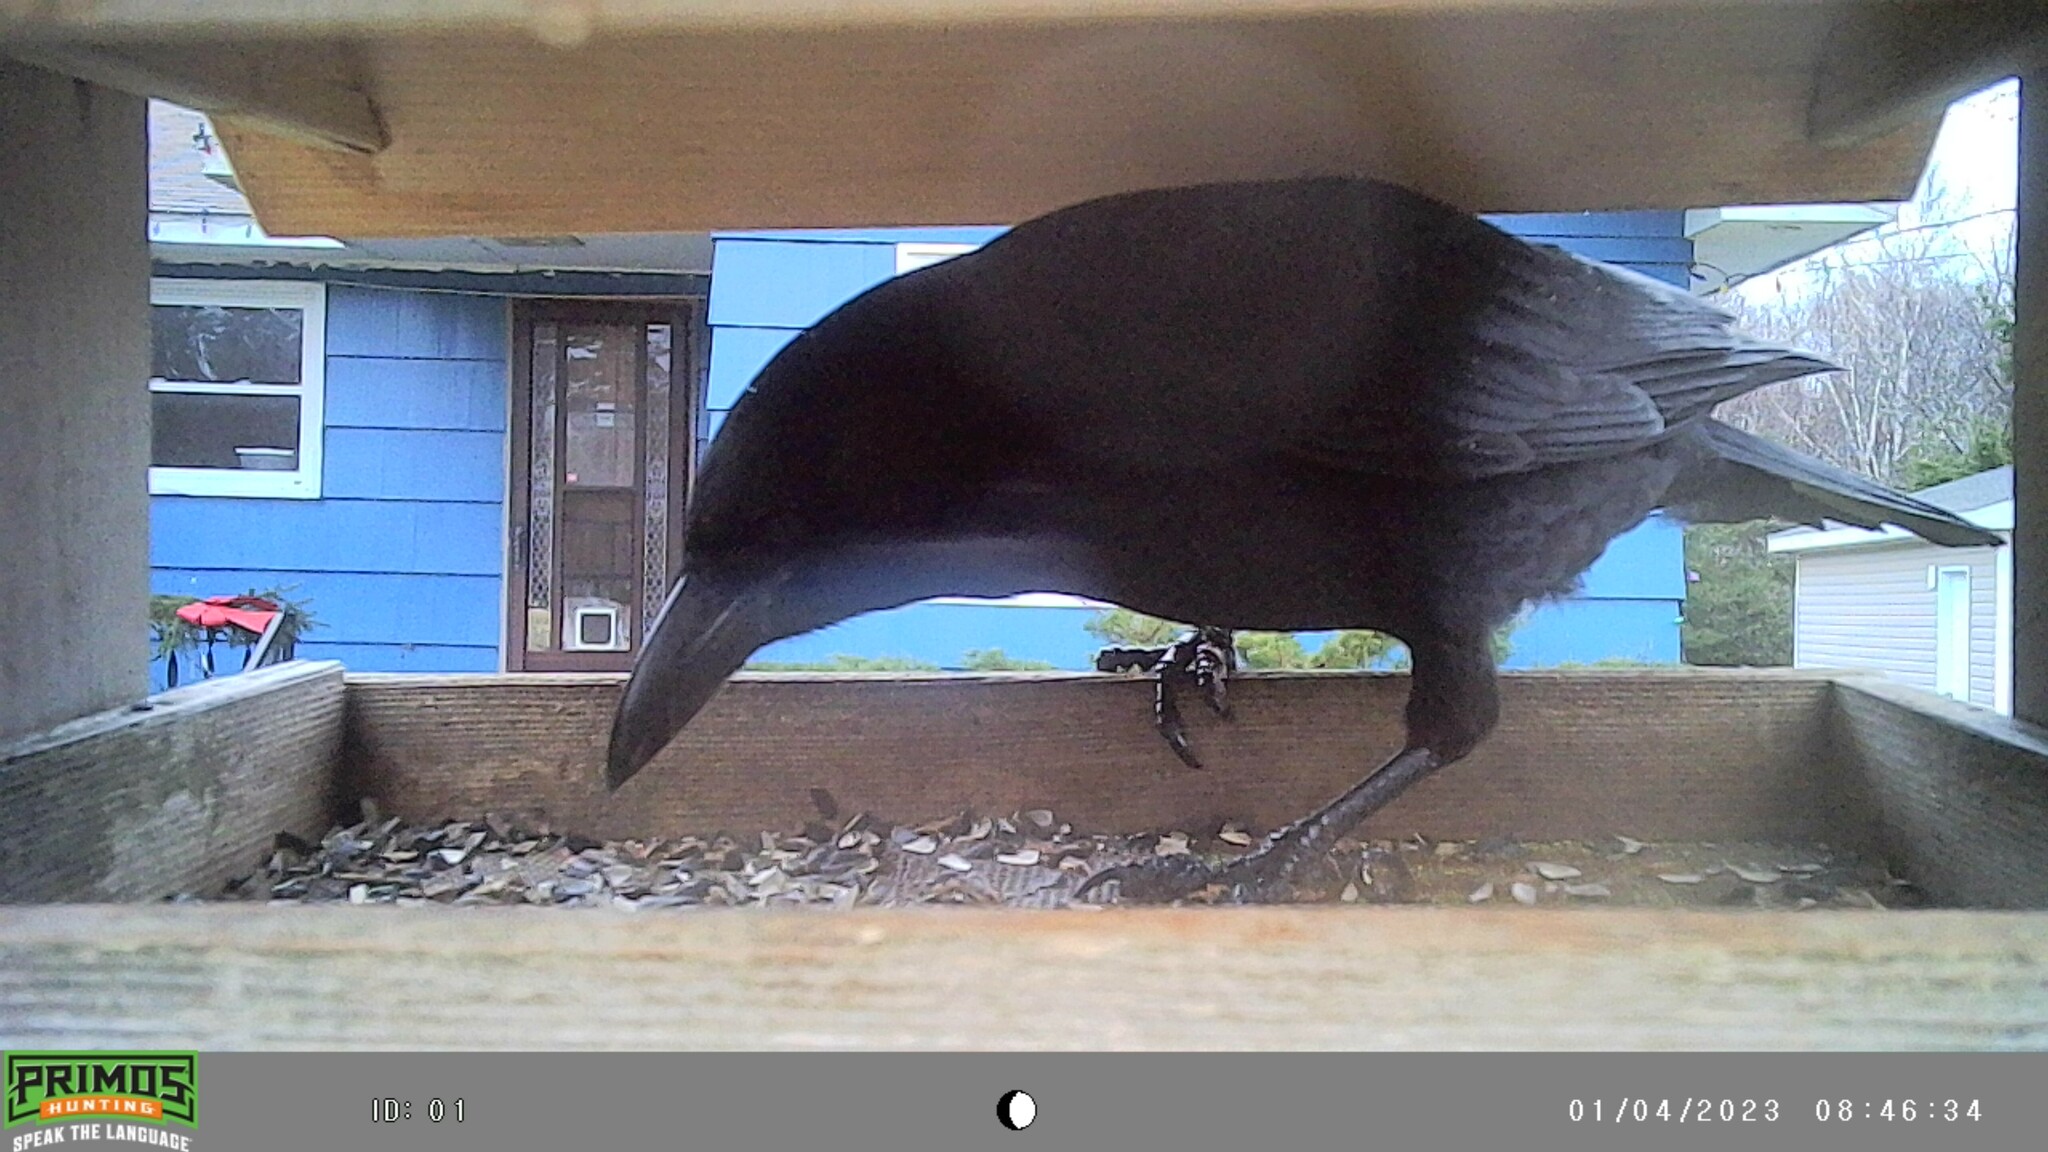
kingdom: Animalia
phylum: Chordata
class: Aves
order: Passeriformes
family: Corvidae
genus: Corvus
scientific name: Corvus brachyrhynchos
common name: American crow
